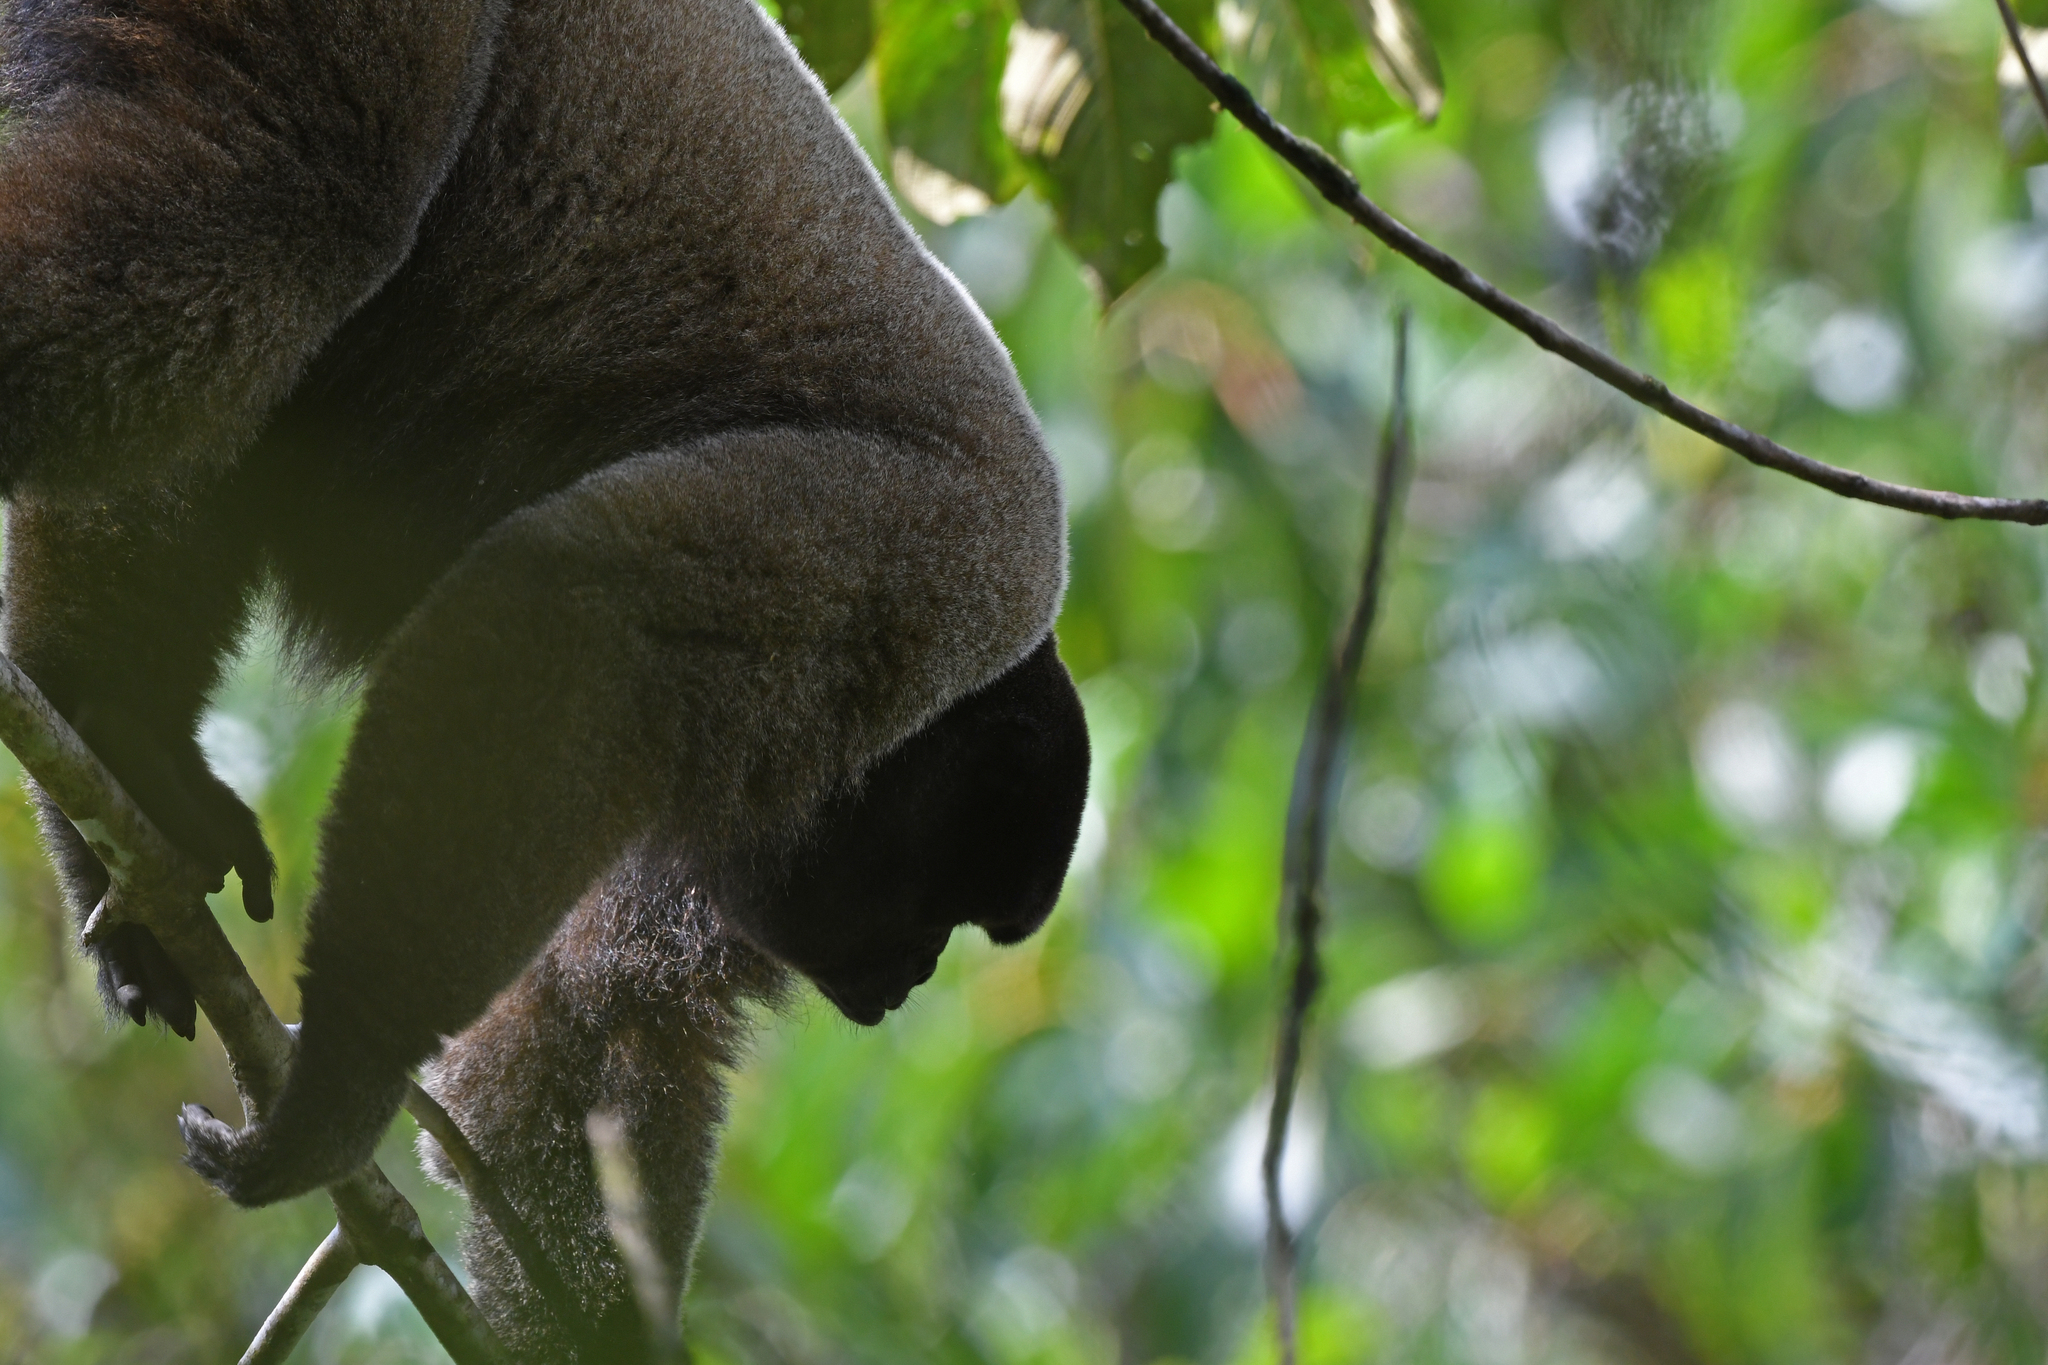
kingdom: Animalia
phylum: Chordata
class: Mammalia
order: Primates
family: Atelidae
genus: Lagothrix
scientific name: Lagothrix lagothricha
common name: Brown woolly monkey
